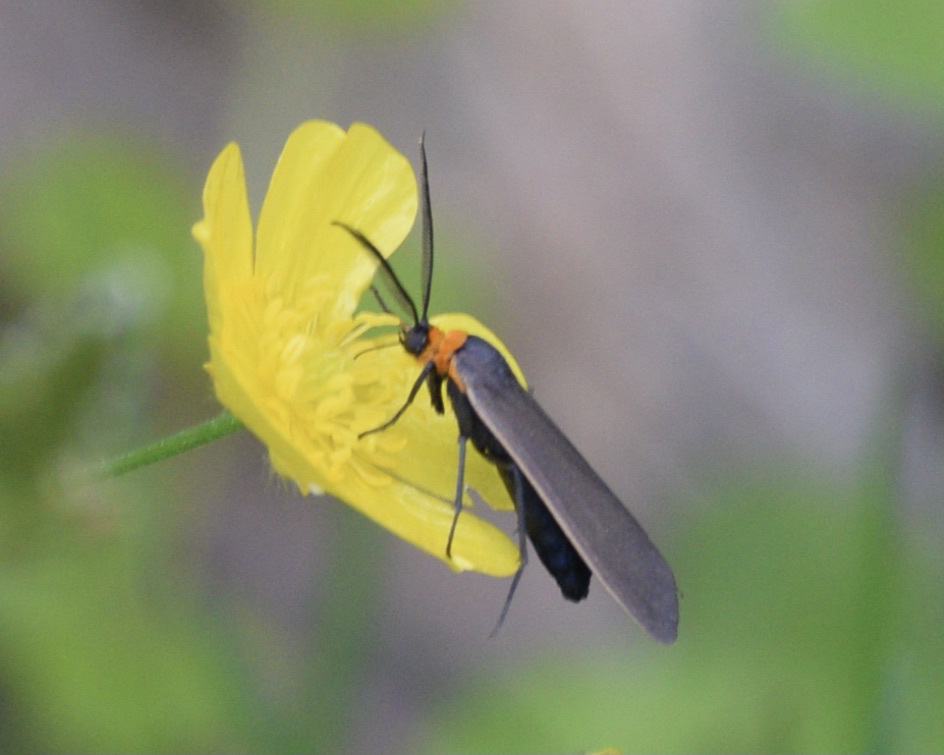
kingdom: Animalia
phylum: Arthropoda
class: Insecta
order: Lepidoptera
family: Erebidae
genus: Cisseps
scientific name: Cisseps fulvicollis
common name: Yellow-collared scape moth
